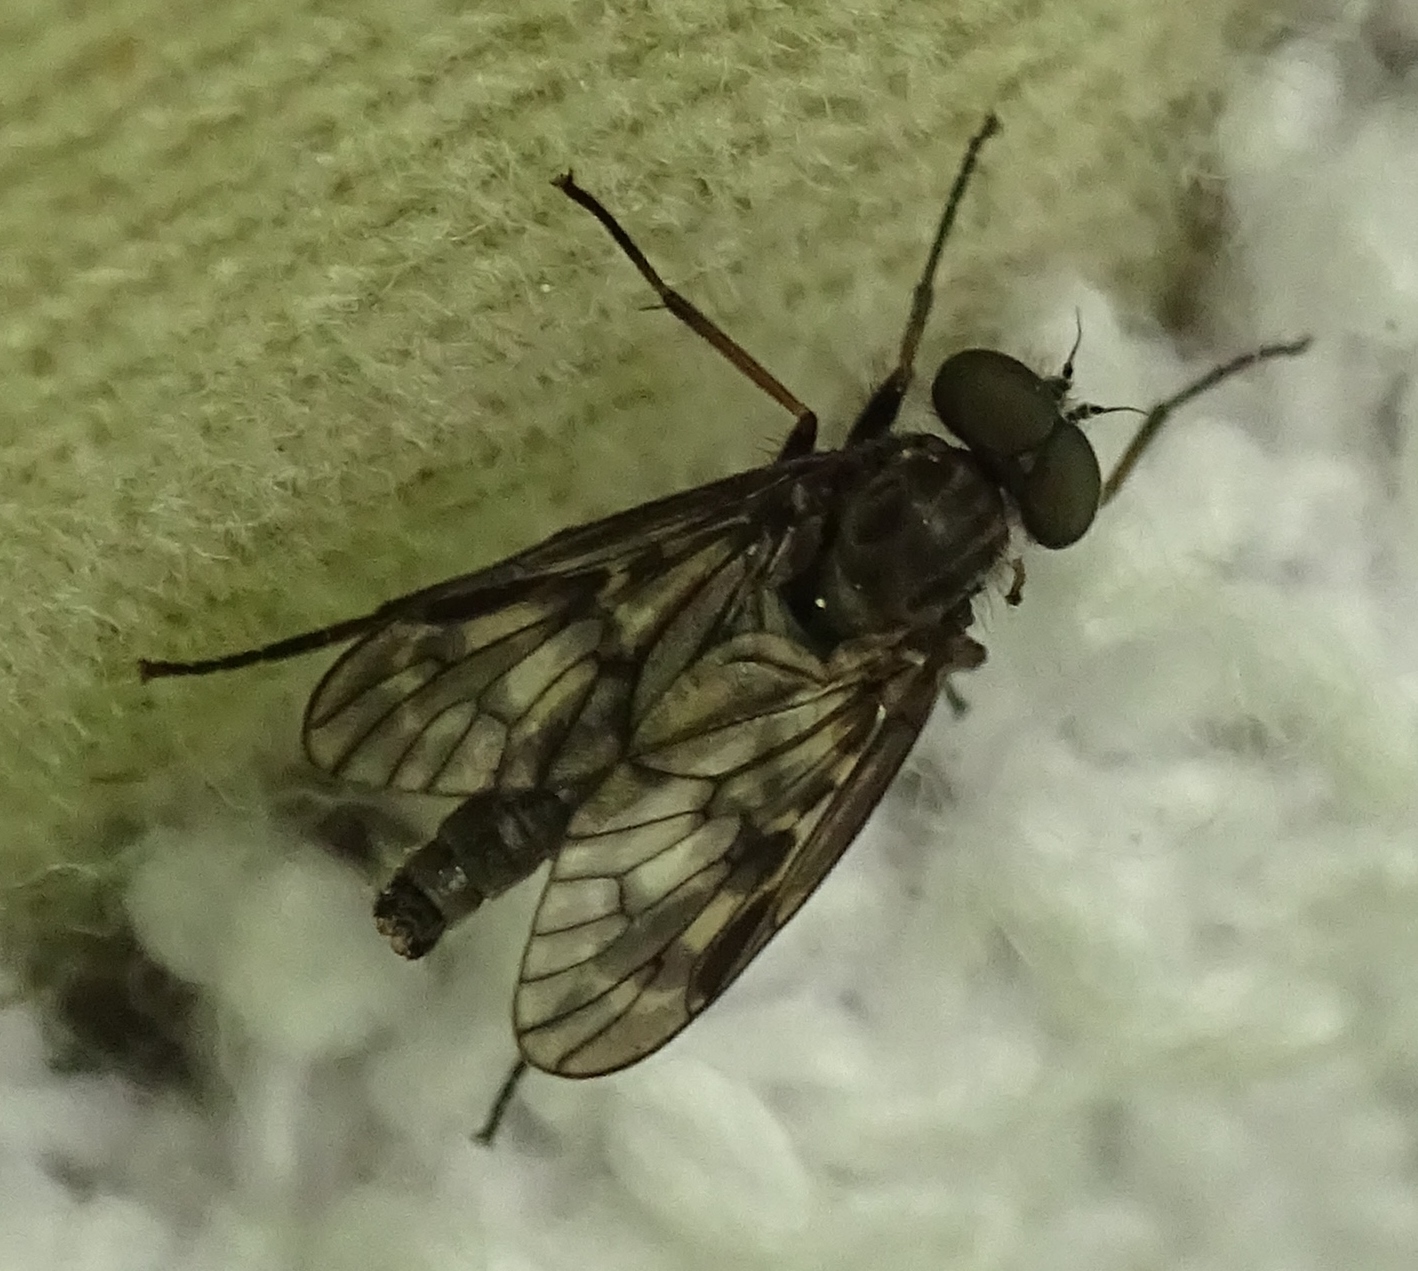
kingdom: Animalia
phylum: Arthropoda
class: Insecta
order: Diptera
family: Rhagionidae
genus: Rhagio
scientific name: Rhagio plumbeus
